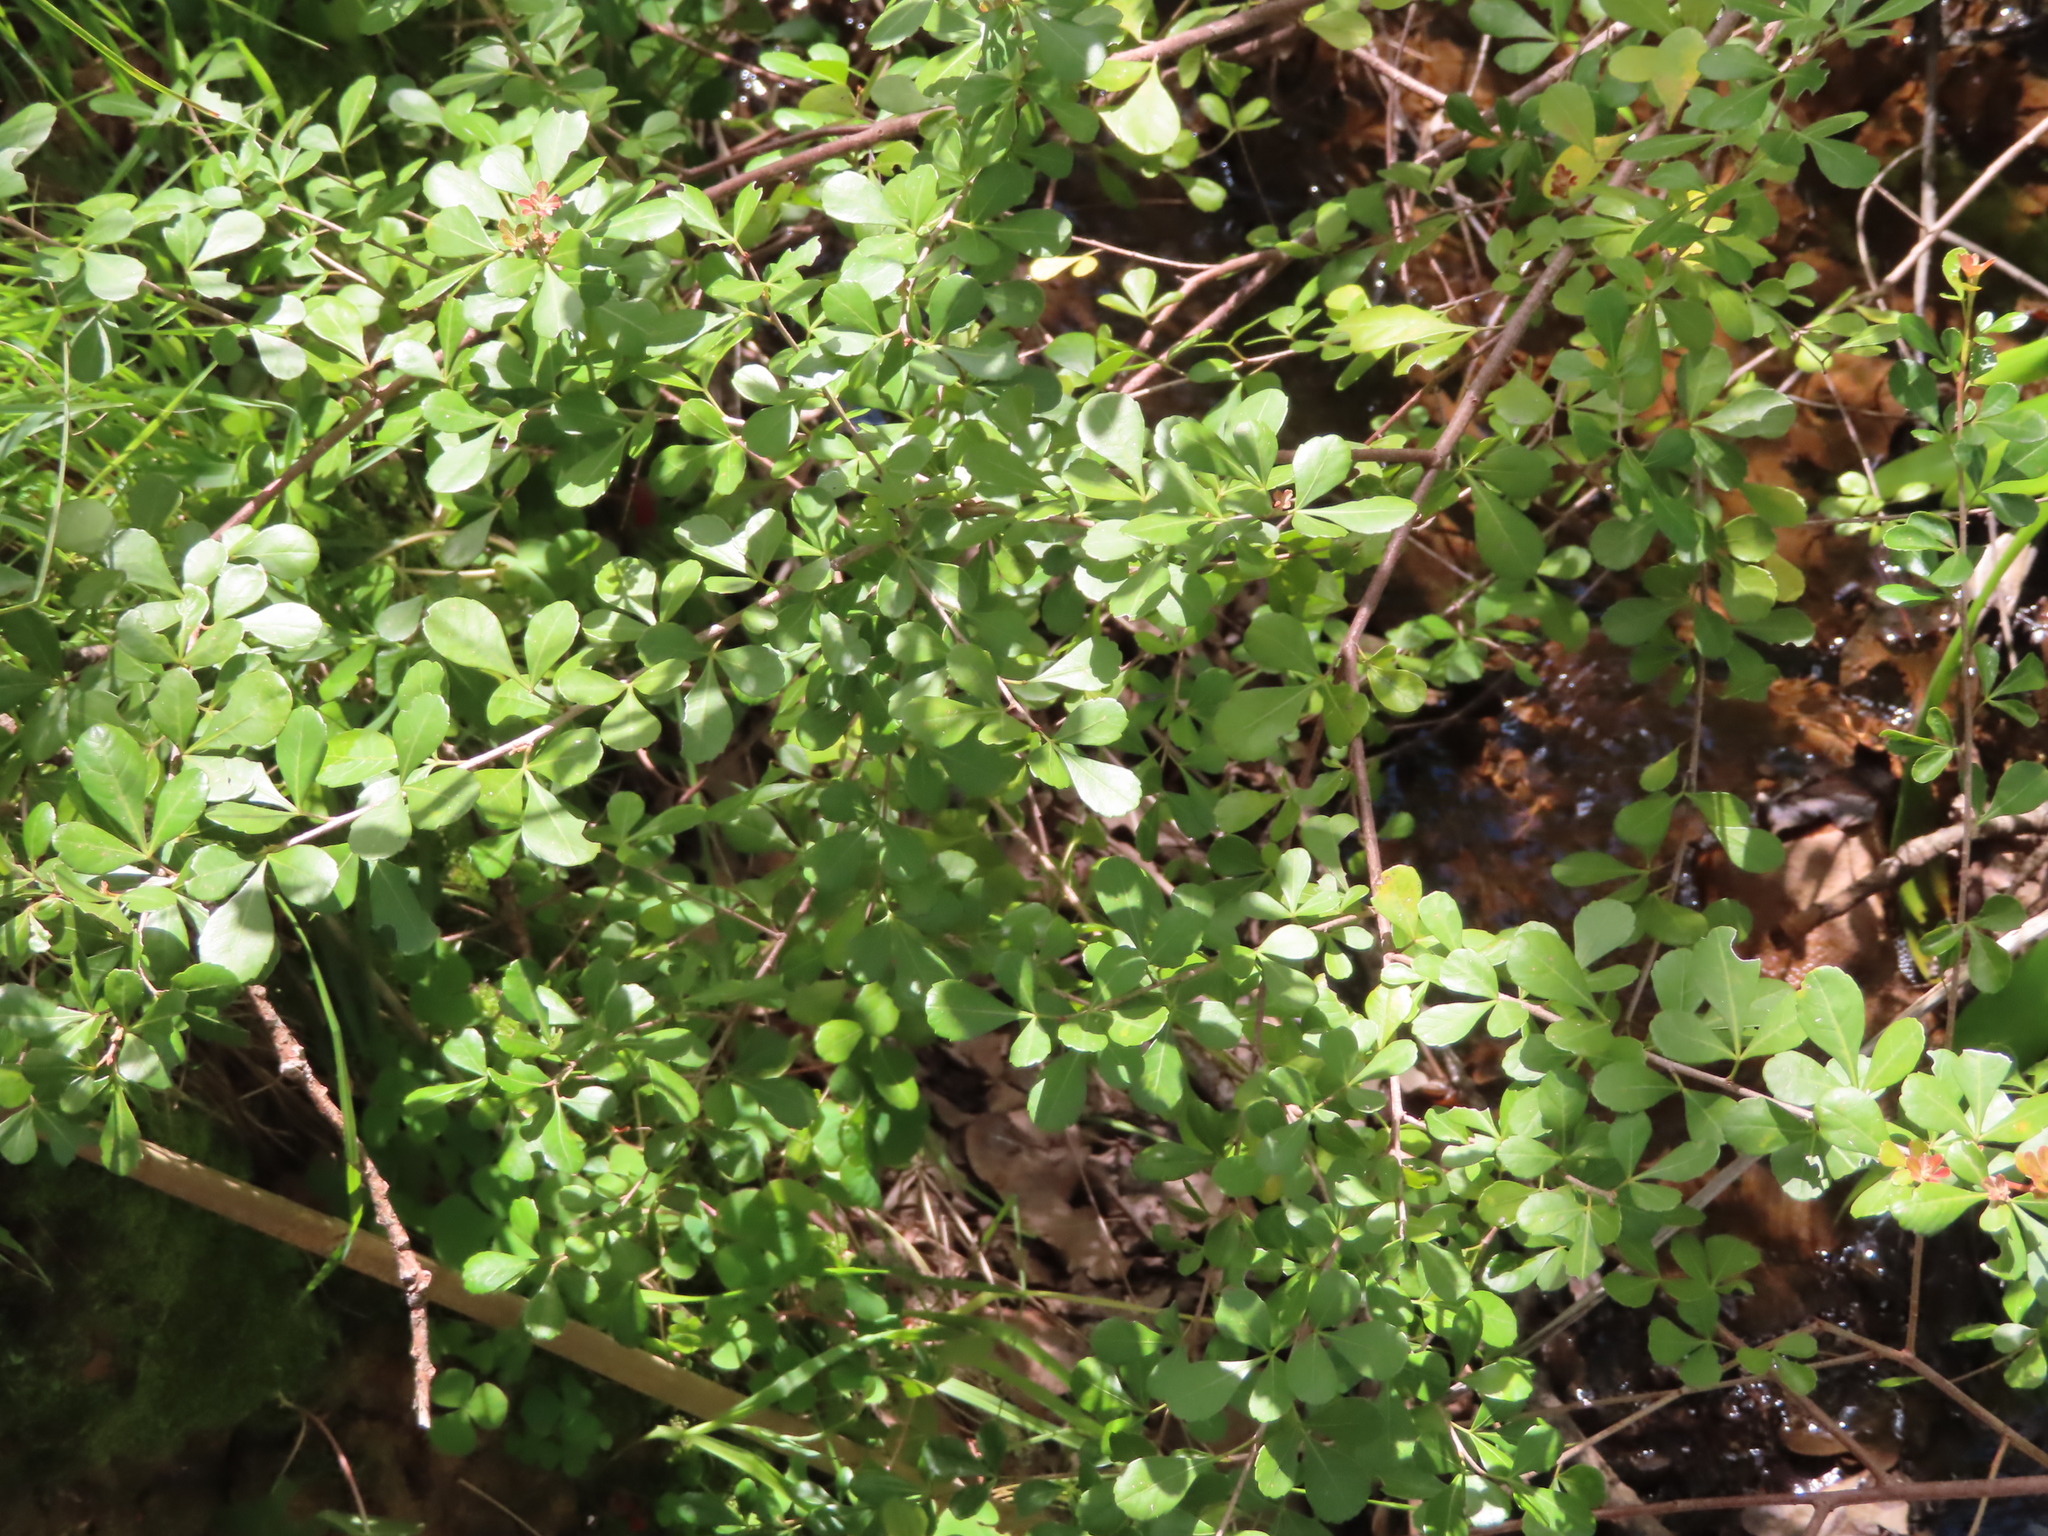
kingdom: Plantae
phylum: Tracheophyta
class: Magnoliopsida
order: Sapindales
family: Anacardiaceae
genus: Searsia
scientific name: Searsia crenata
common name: Crowberry
